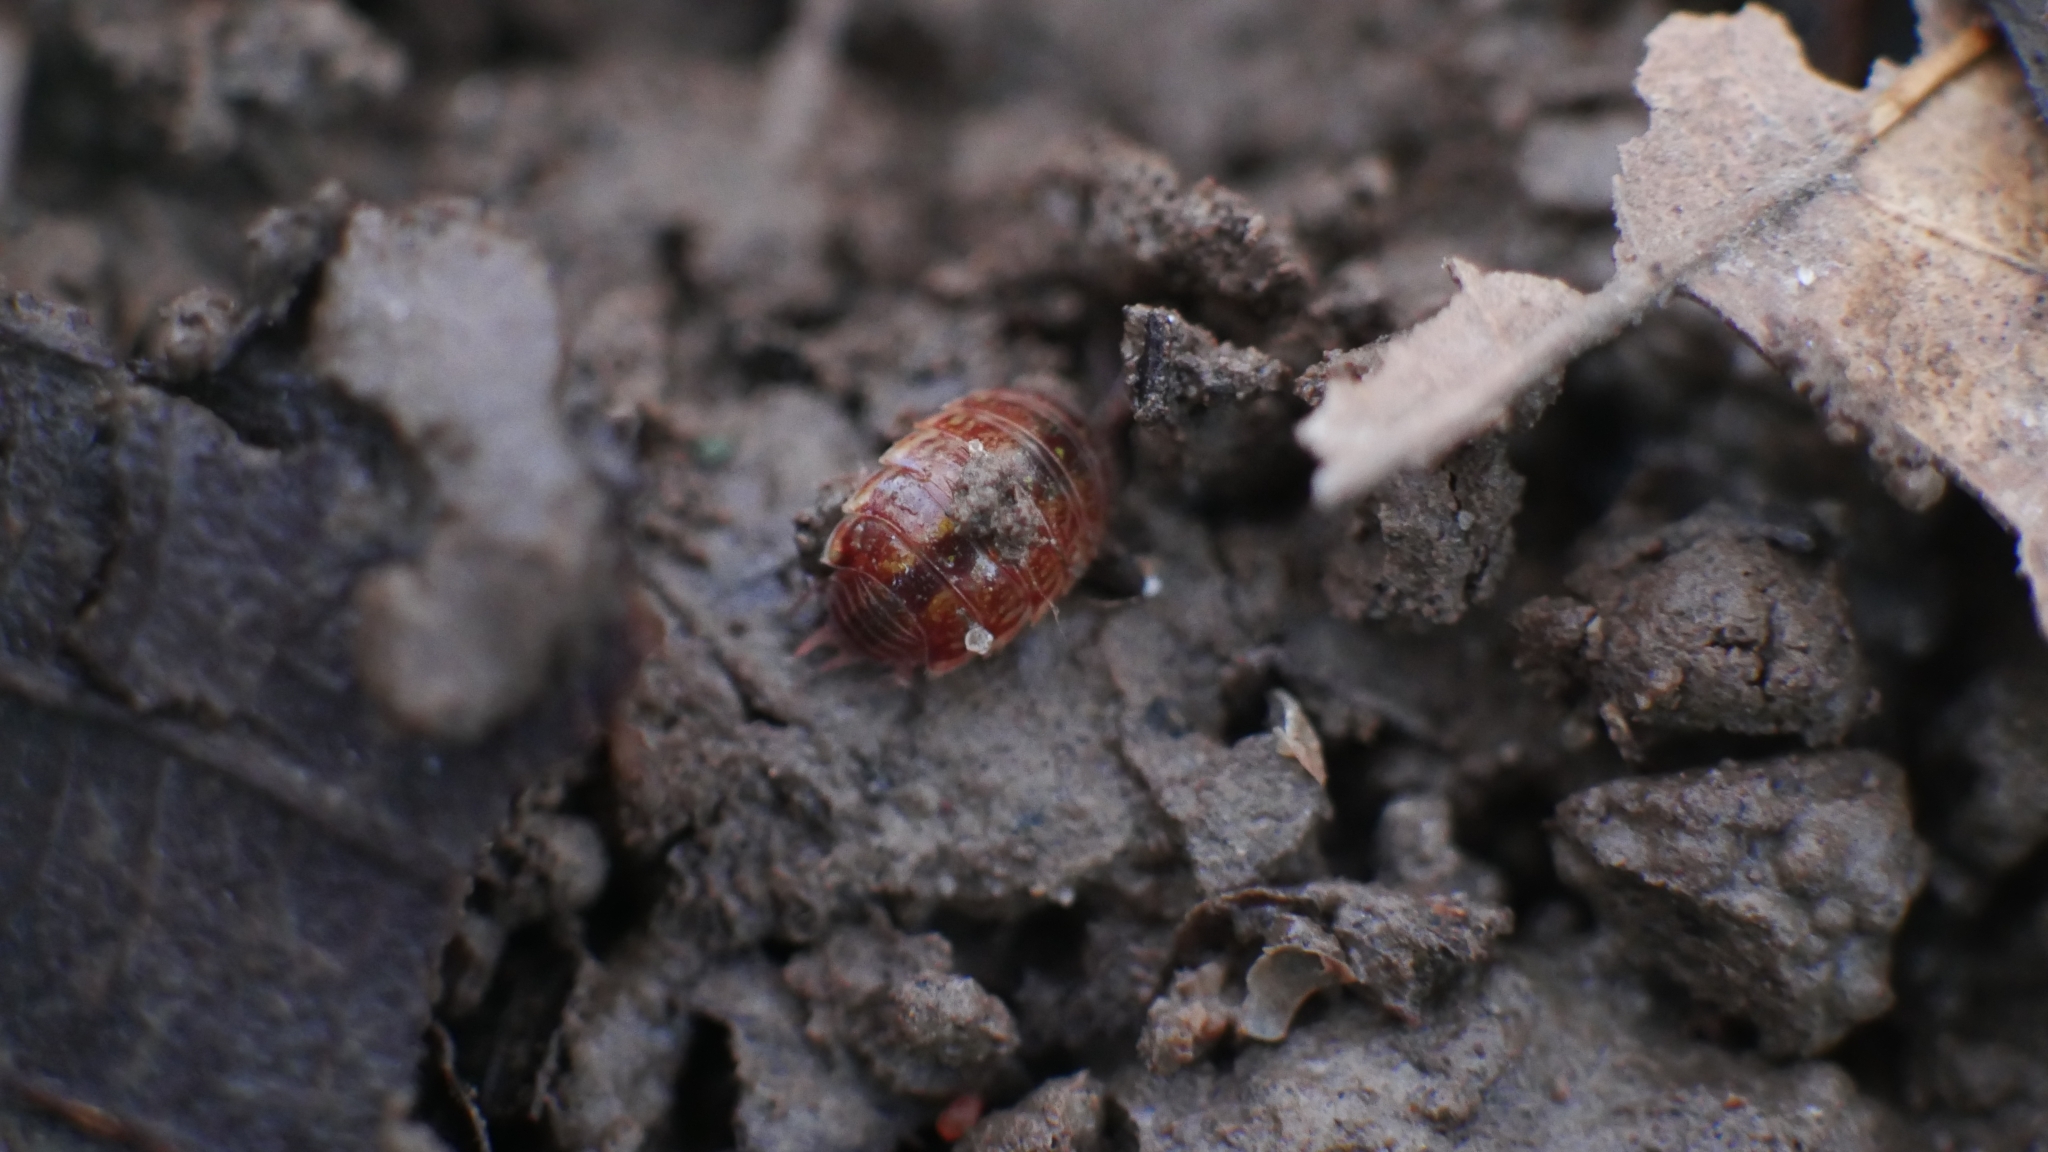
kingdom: Animalia
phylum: Arthropoda
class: Malacostraca
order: Isopoda
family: Philosciidae
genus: Philoscia
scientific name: Philoscia muscorum
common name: Common striped woodlouse
